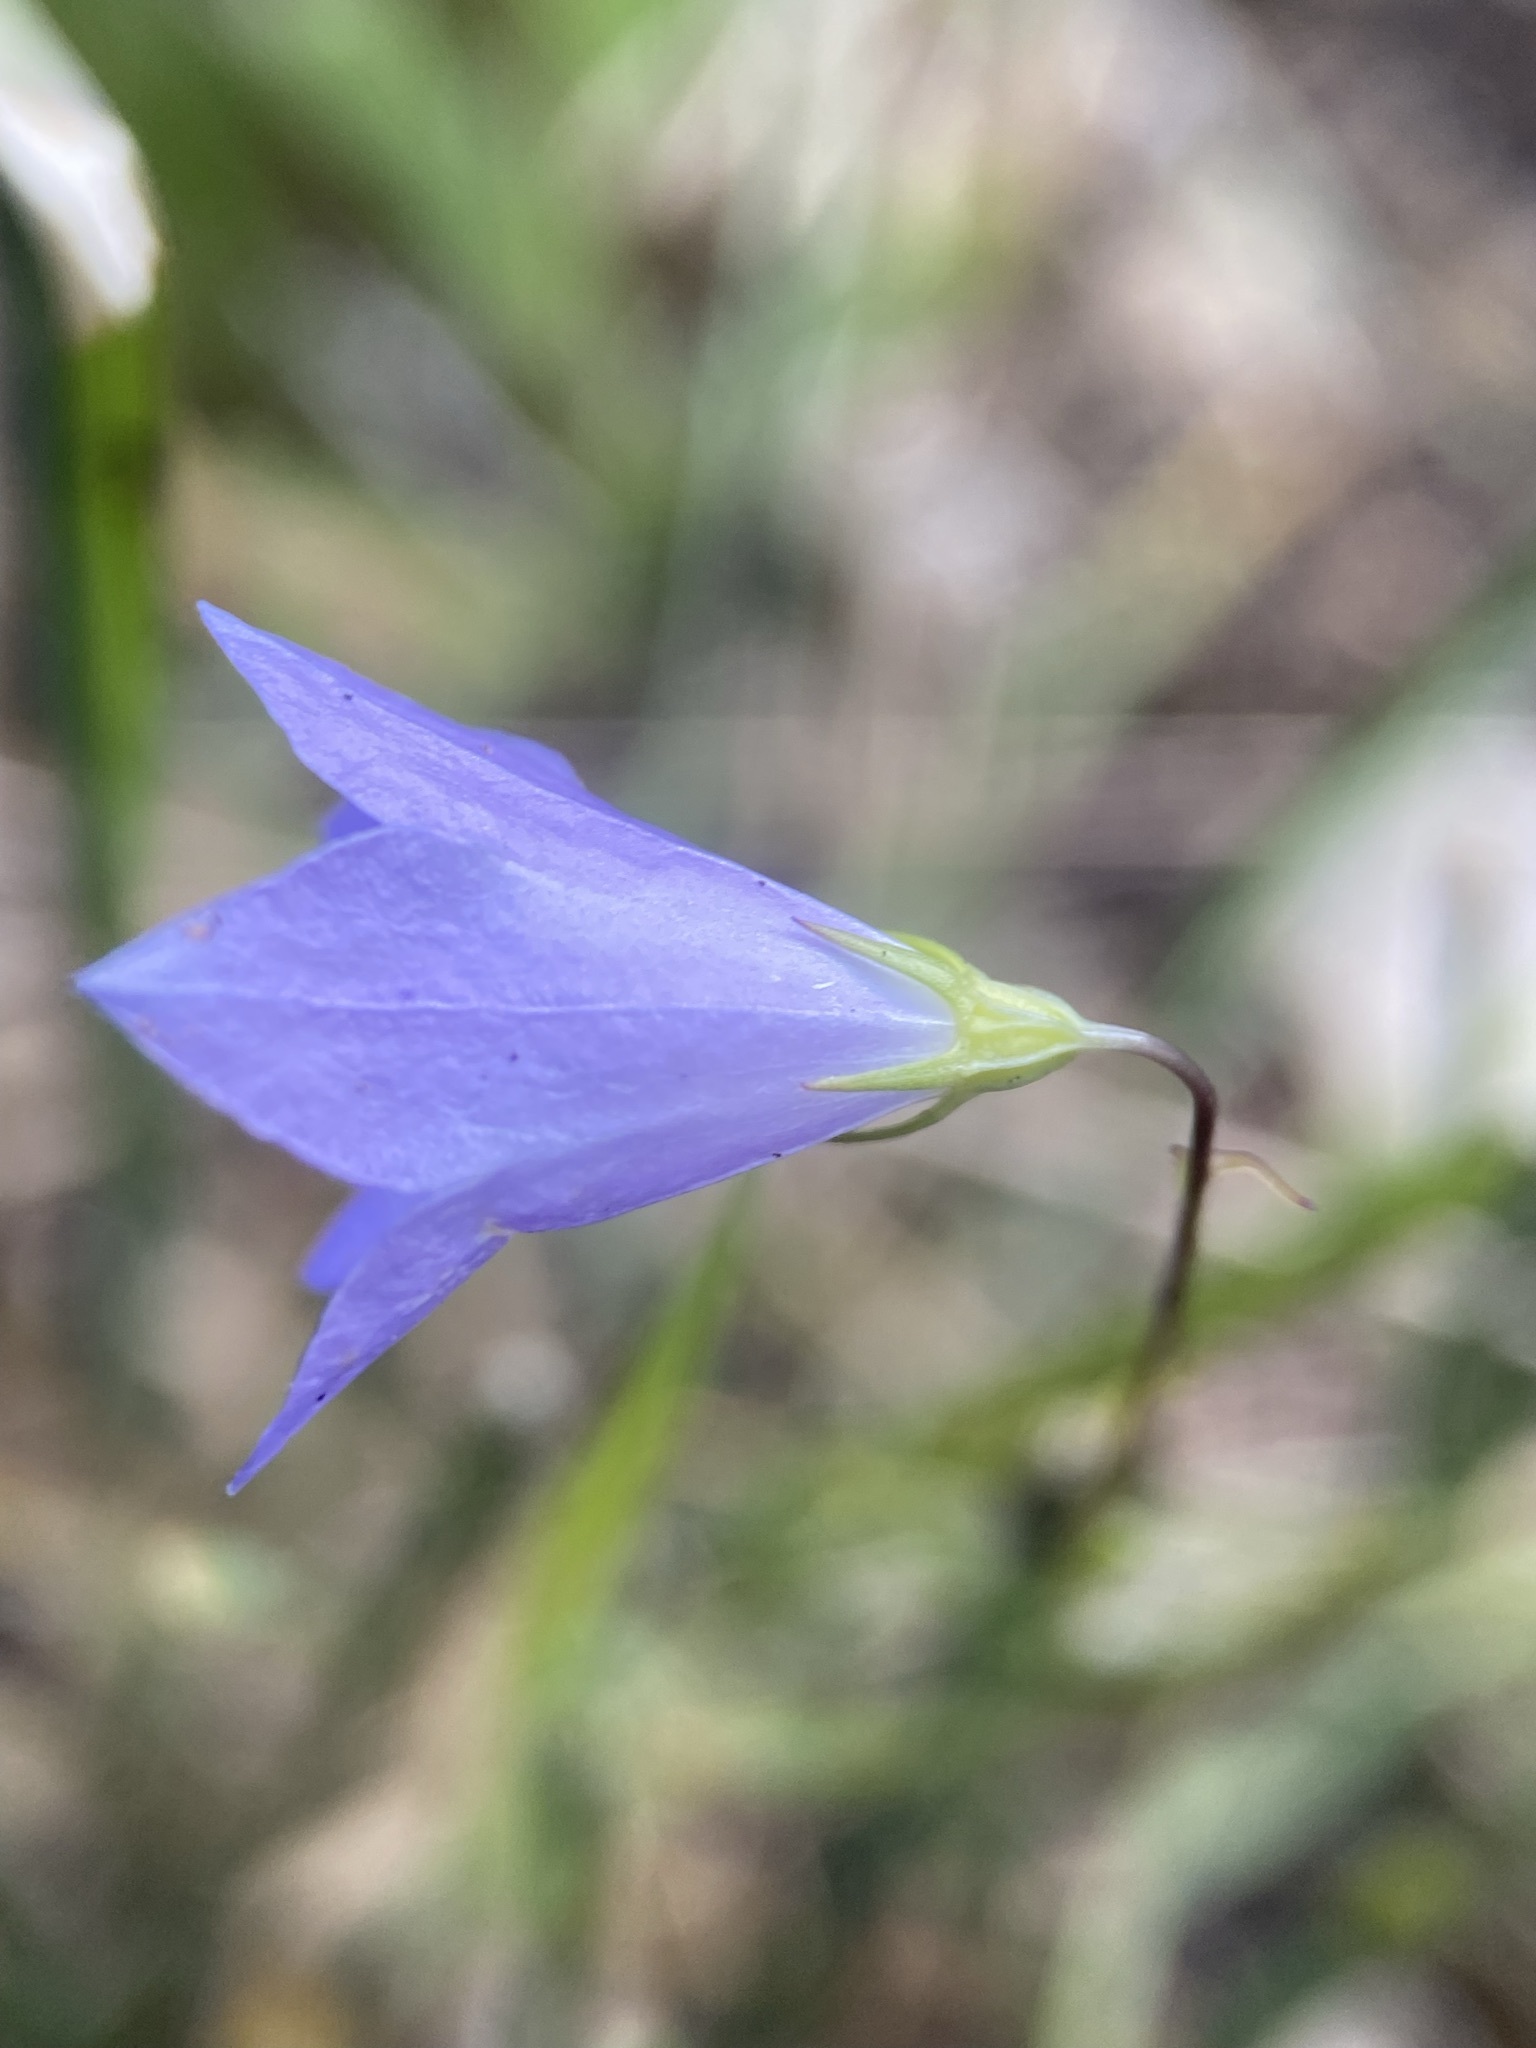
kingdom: Plantae
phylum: Tracheophyta
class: Magnoliopsida
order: Asterales
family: Campanulaceae
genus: Campanula
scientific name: Campanula petiolata
